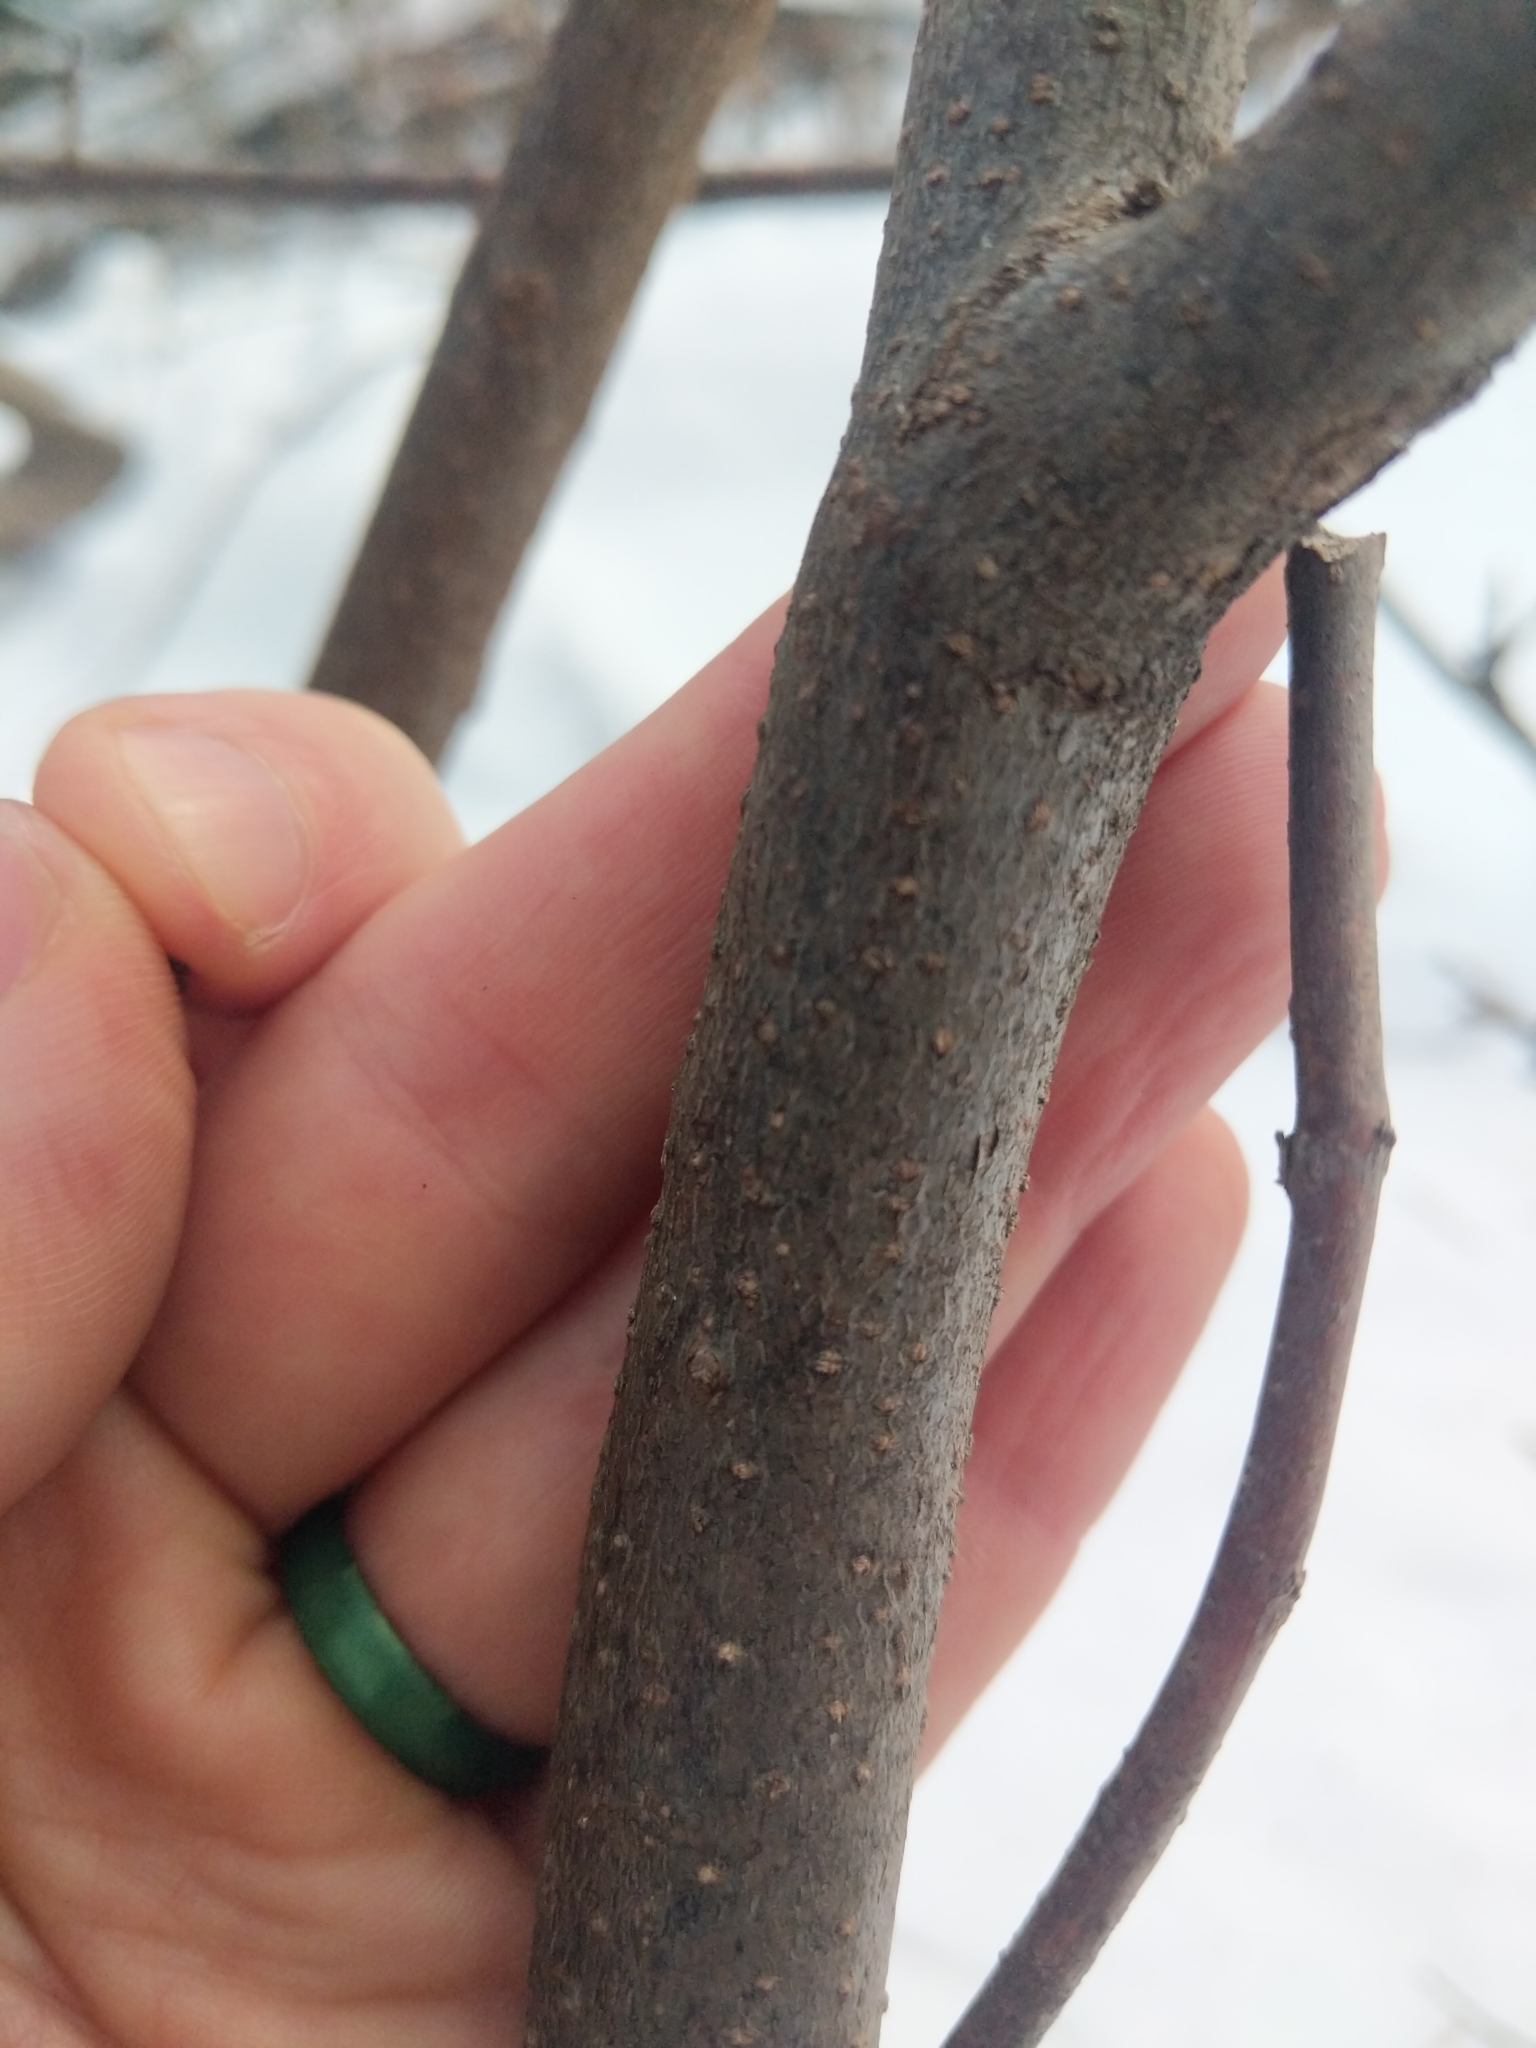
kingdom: Plantae
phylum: Tracheophyta
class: Magnoliopsida
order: Laurales
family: Lauraceae
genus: Lindera
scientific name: Lindera benzoin
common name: Spicebush
